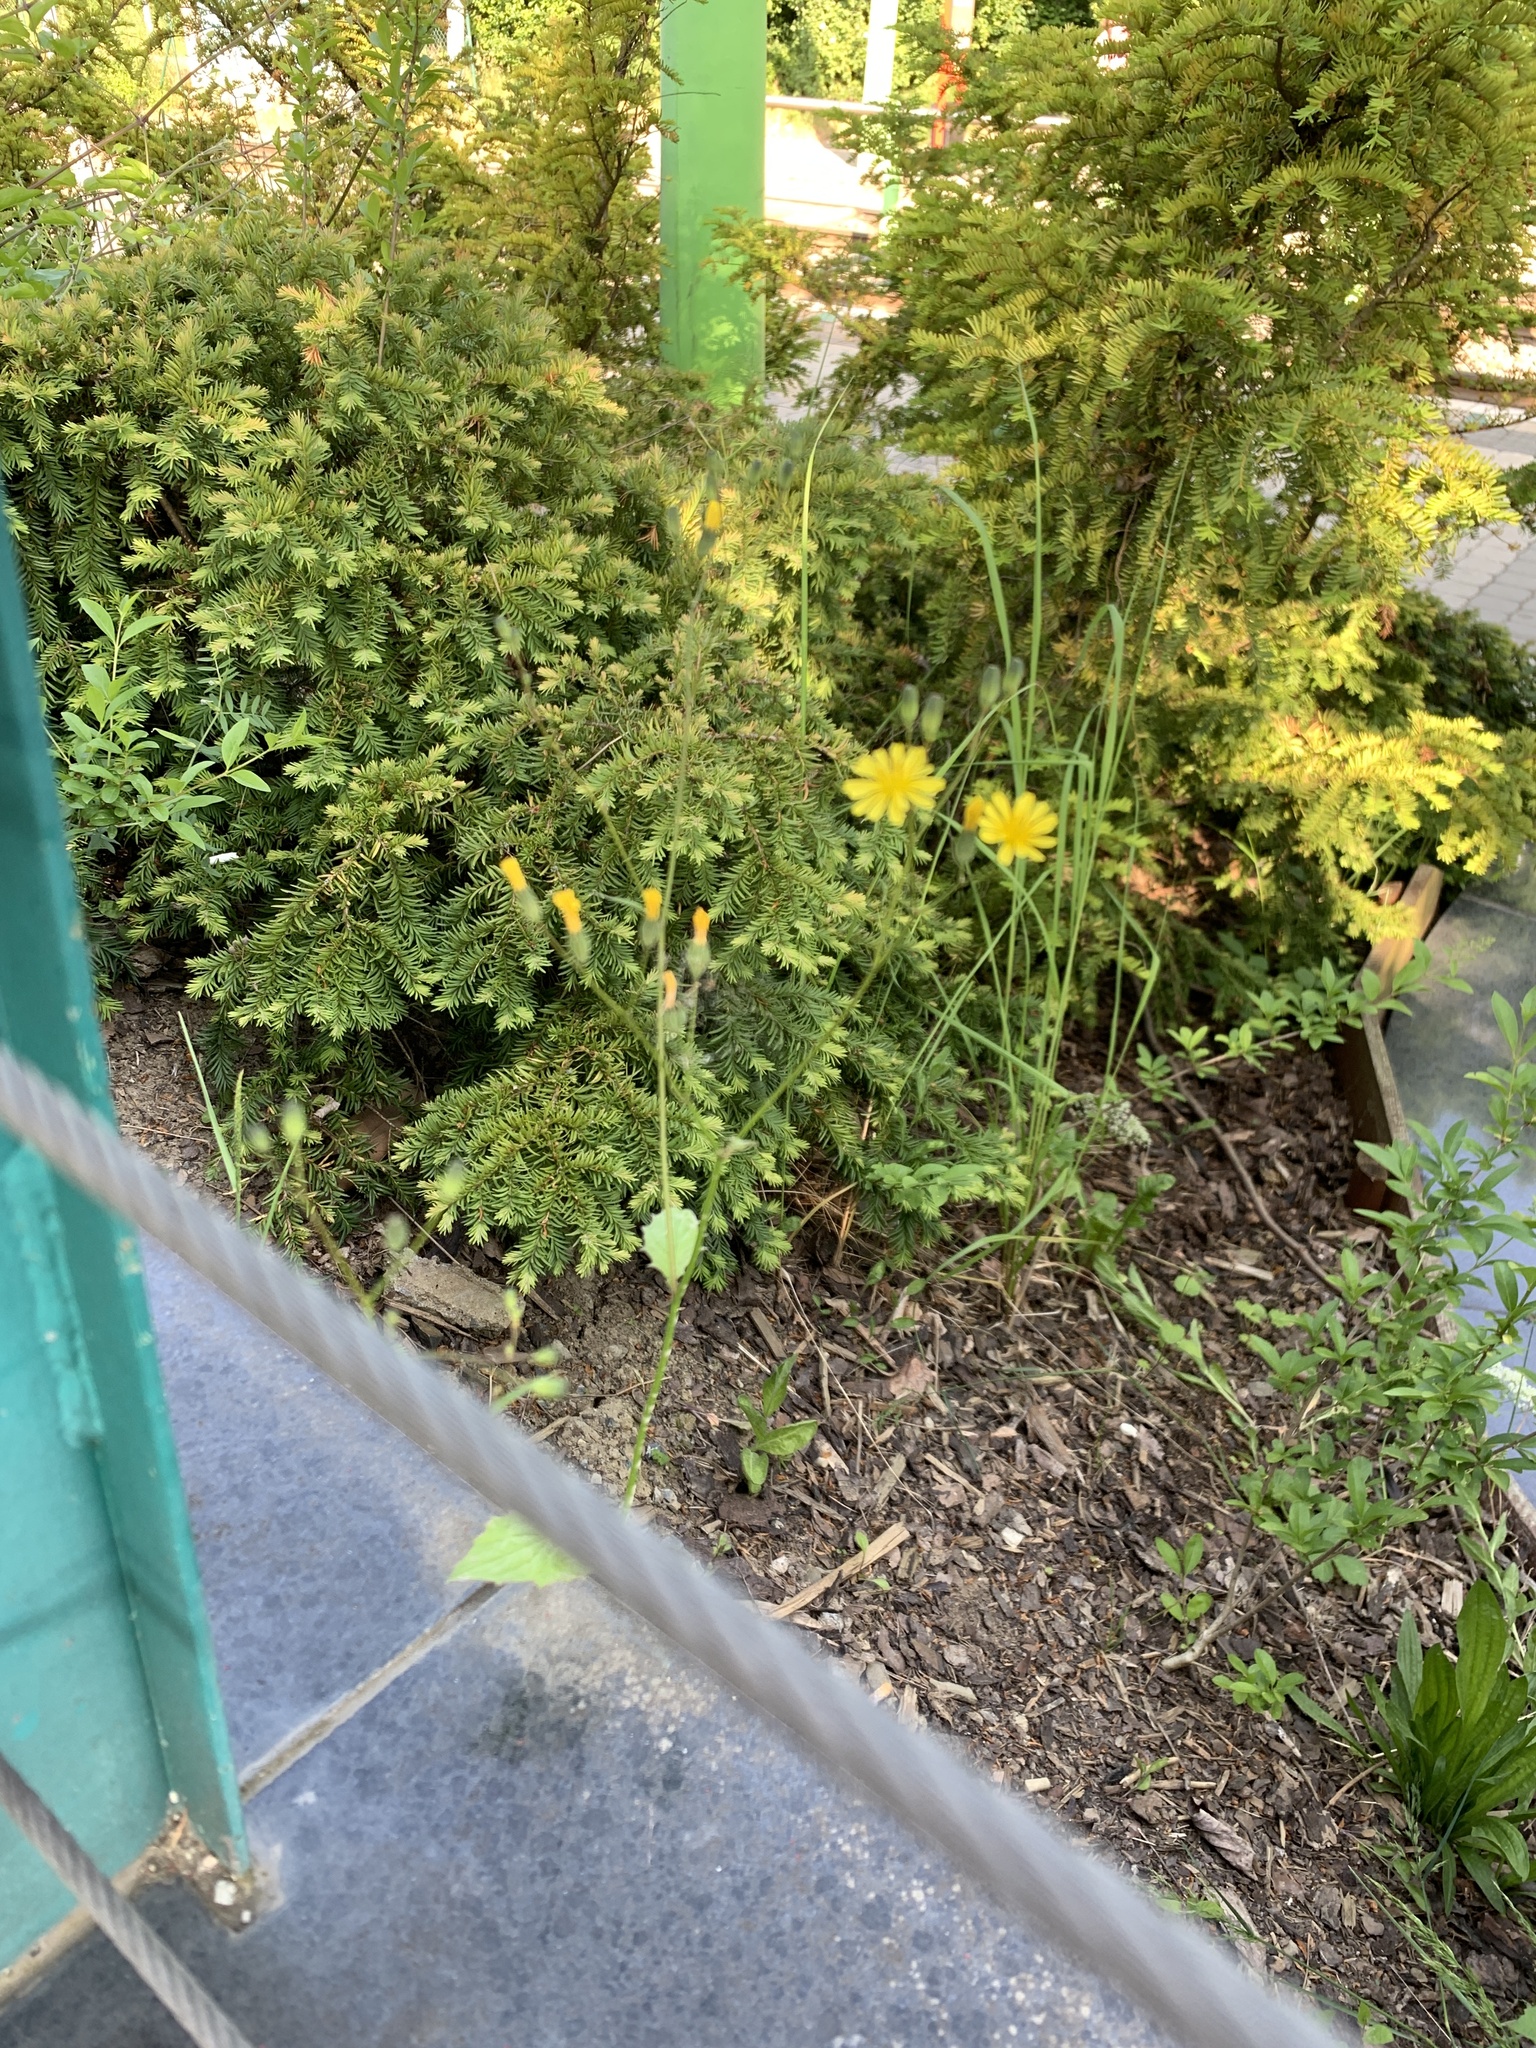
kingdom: Plantae
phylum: Tracheophyta
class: Magnoliopsida
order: Asterales
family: Asteraceae
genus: Lapsana
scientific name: Lapsana communis
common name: Nipplewort
